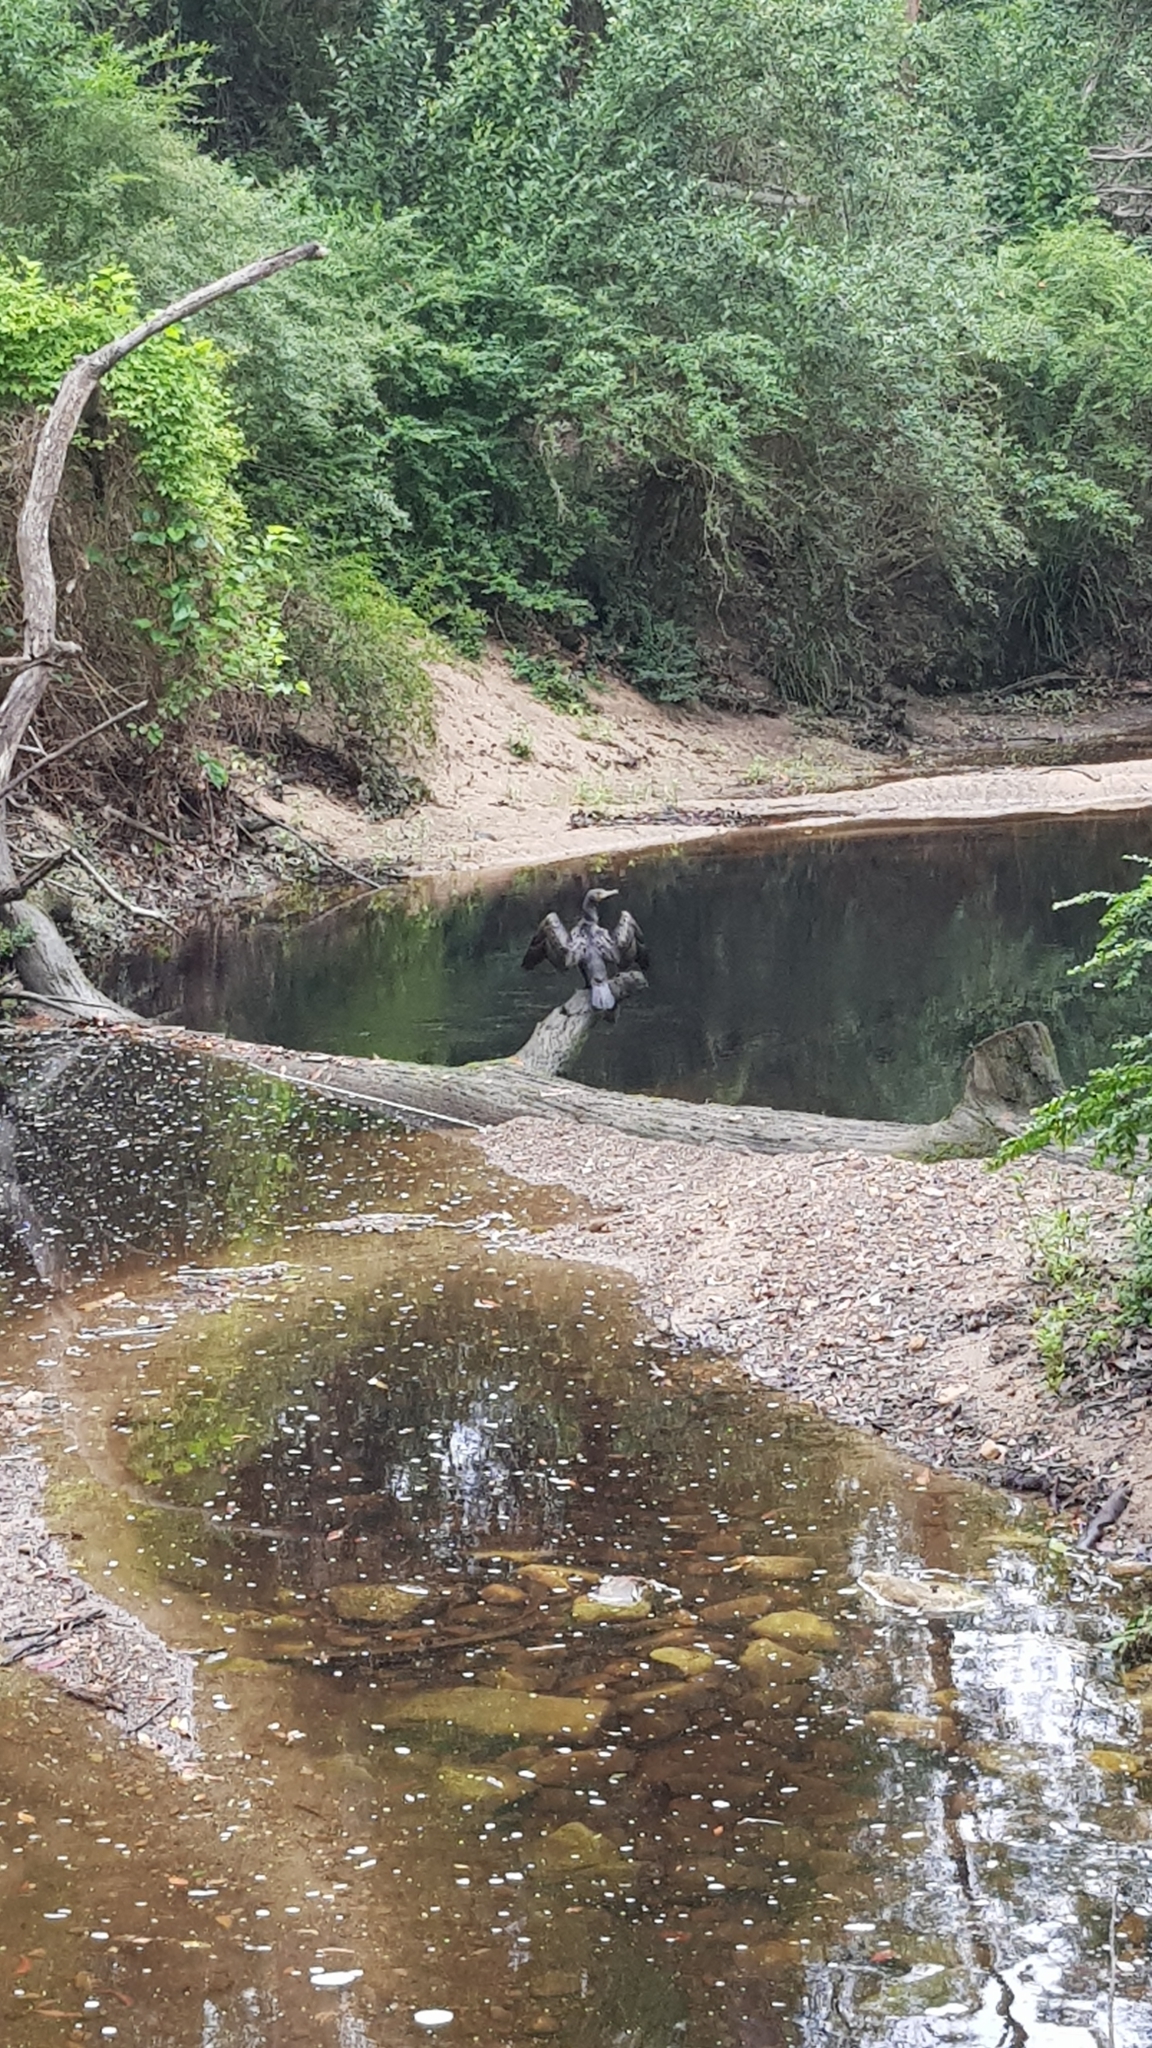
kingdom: Animalia
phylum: Chordata
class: Aves
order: Suliformes
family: Phalacrocoracidae
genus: Phalacrocorax
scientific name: Phalacrocorax carbo
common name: Great cormorant
